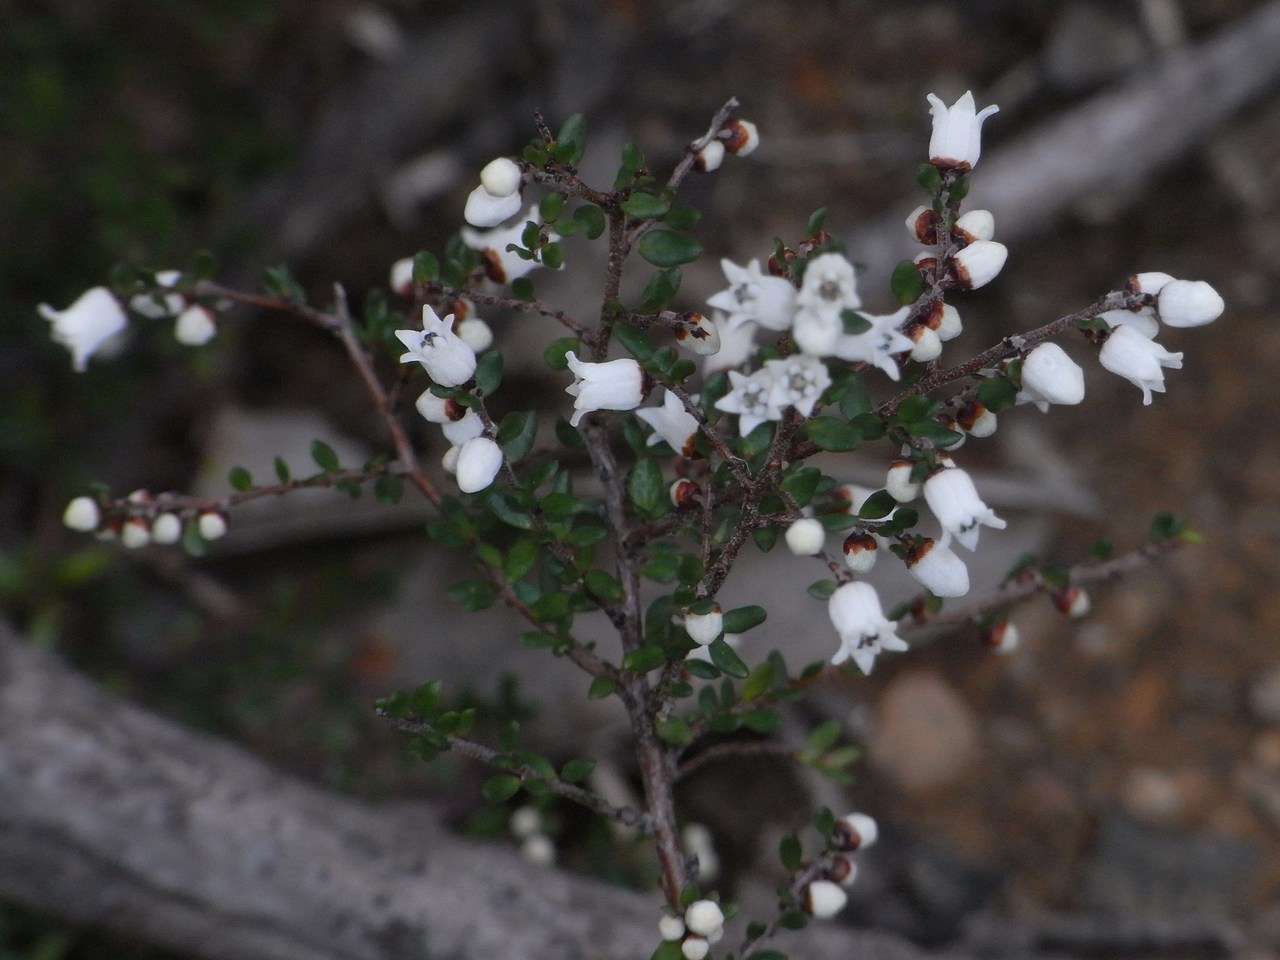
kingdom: Plantae
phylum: Tracheophyta
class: Magnoliopsida
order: Rosales
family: Rhamnaceae
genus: Cryptandra
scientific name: Cryptandra amara
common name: Bitter cryptandra
